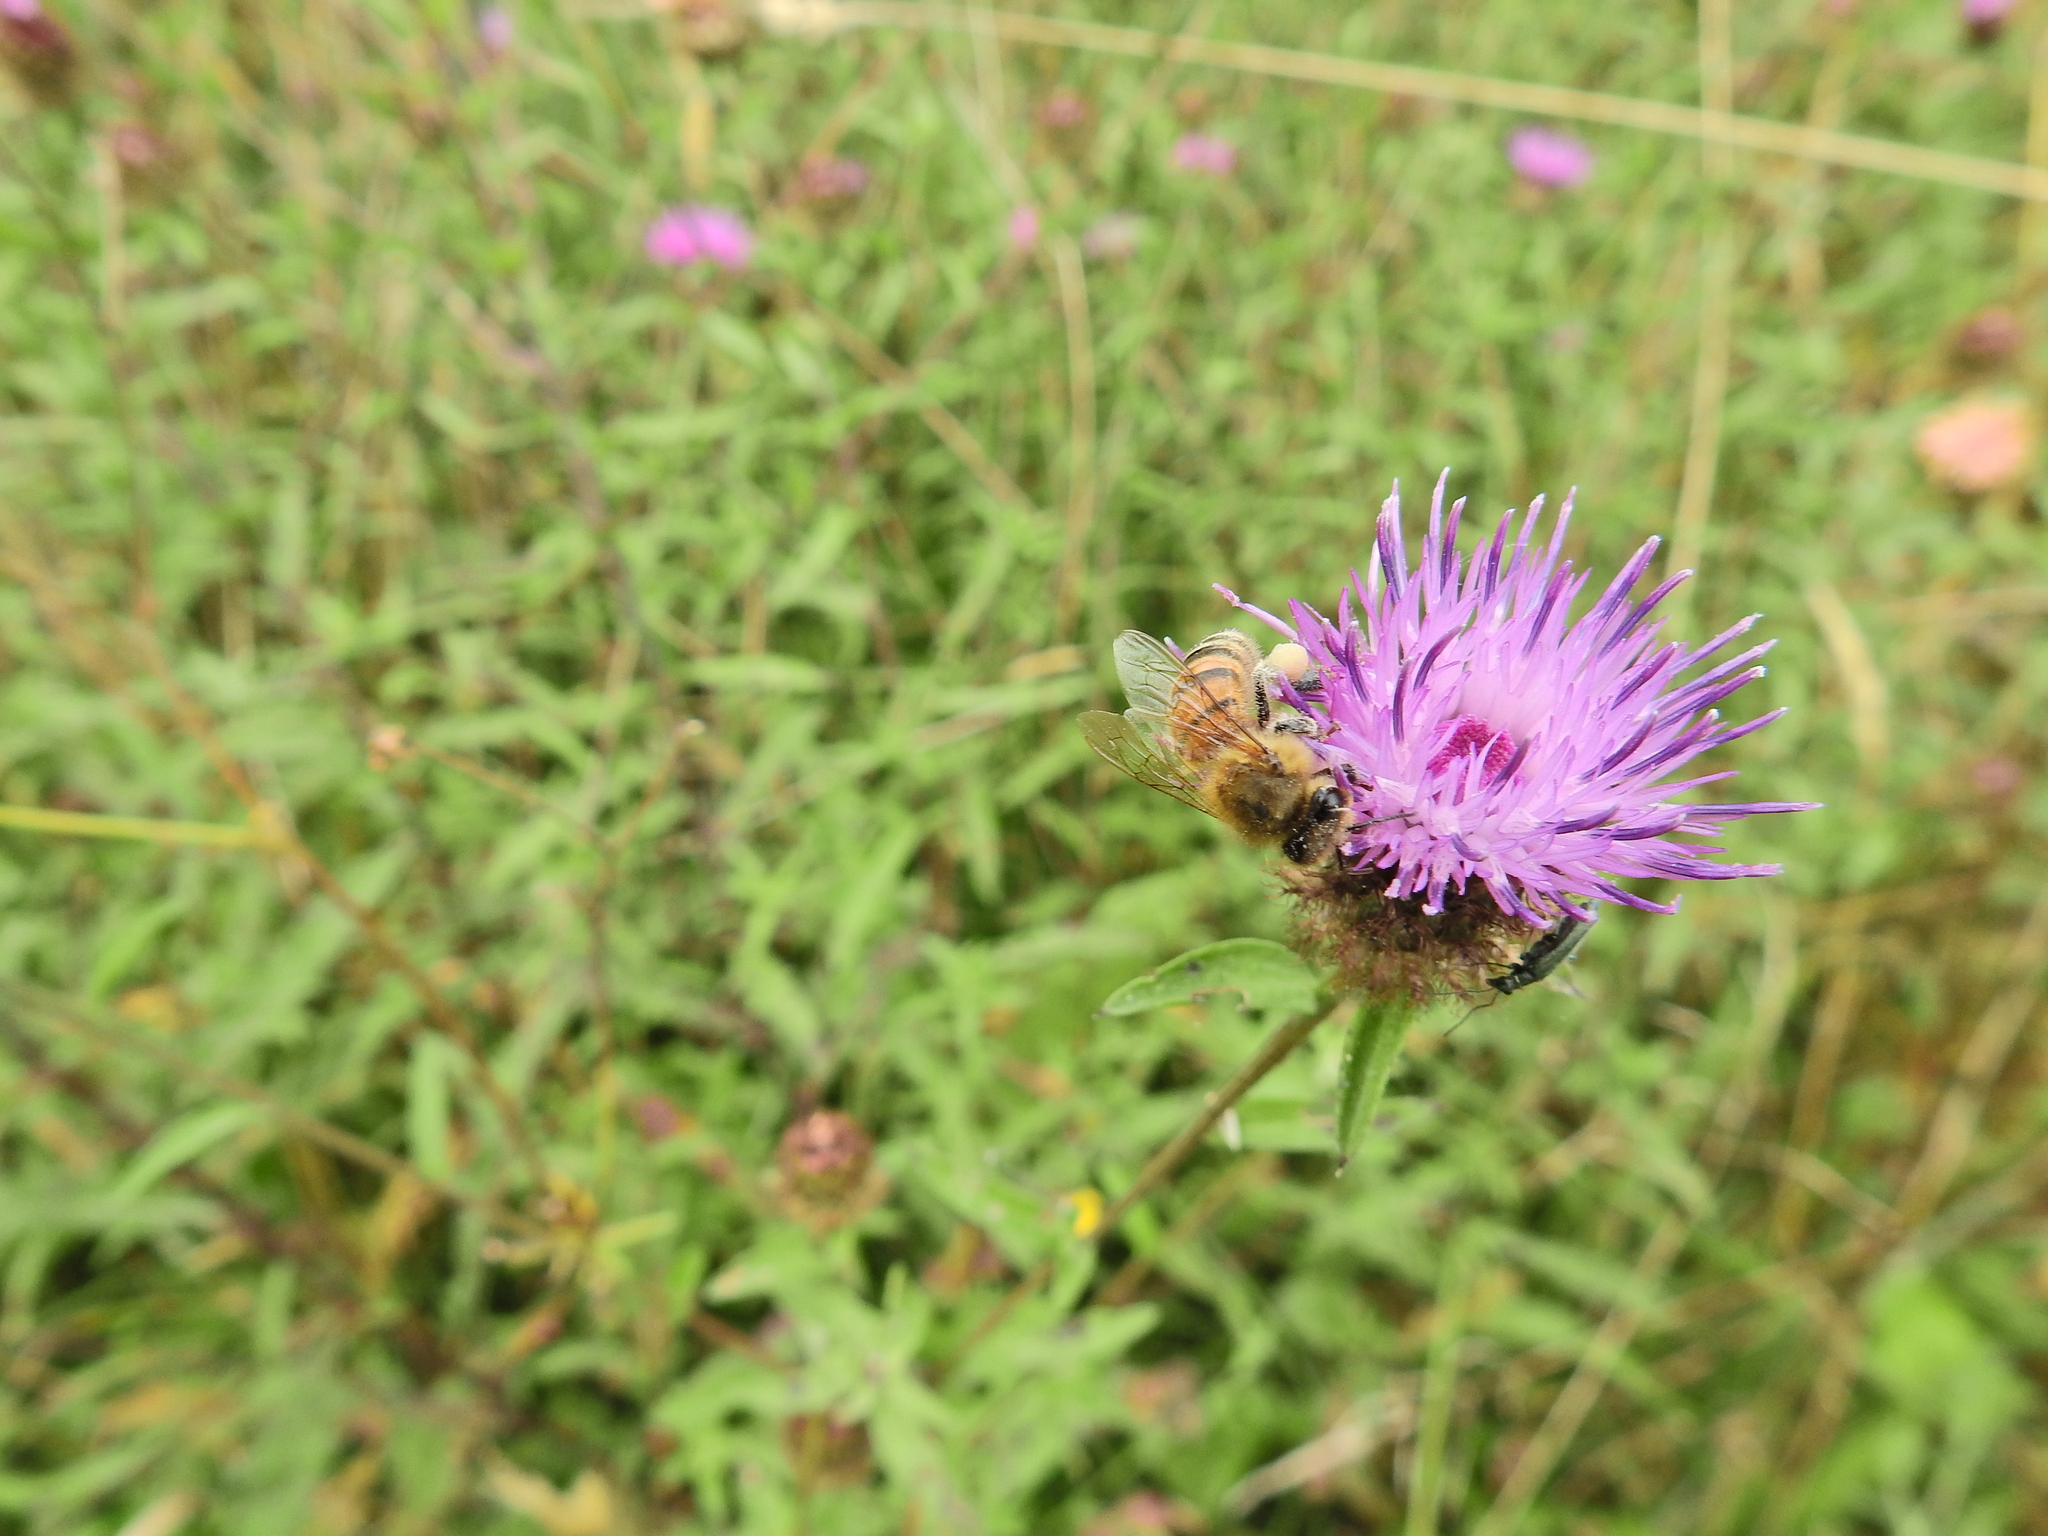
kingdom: Animalia
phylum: Arthropoda
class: Insecta
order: Hymenoptera
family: Apidae
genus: Apis
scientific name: Apis mellifera
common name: Honey bee
